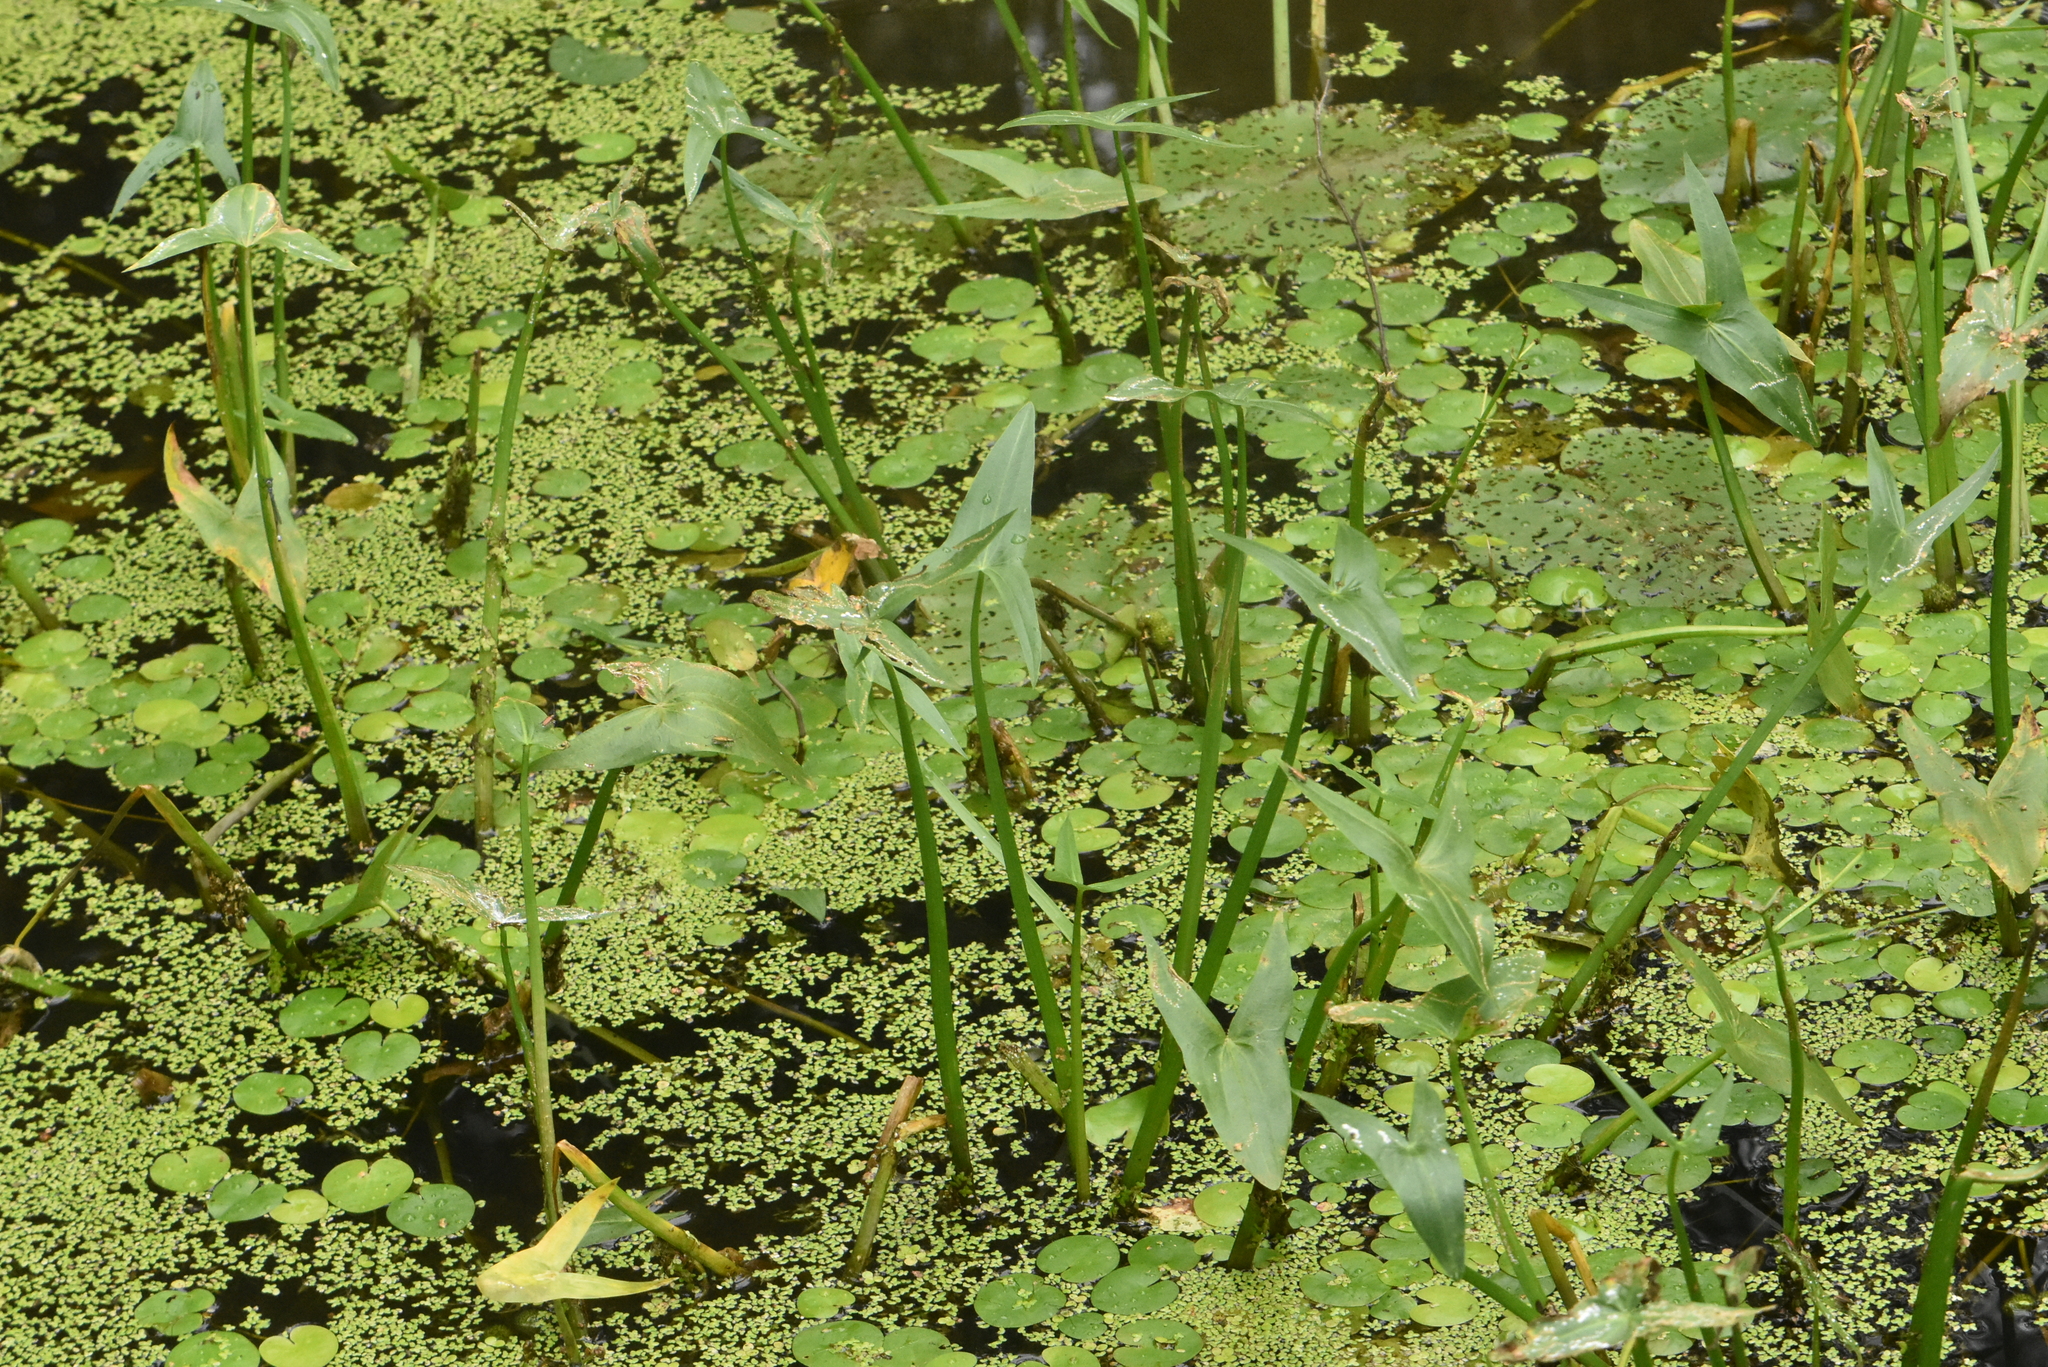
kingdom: Plantae
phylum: Tracheophyta
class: Liliopsida
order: Alismatales
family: Alismataceae
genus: Sagittaria
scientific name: Sagittaria sagittifolia
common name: Arrowhead
